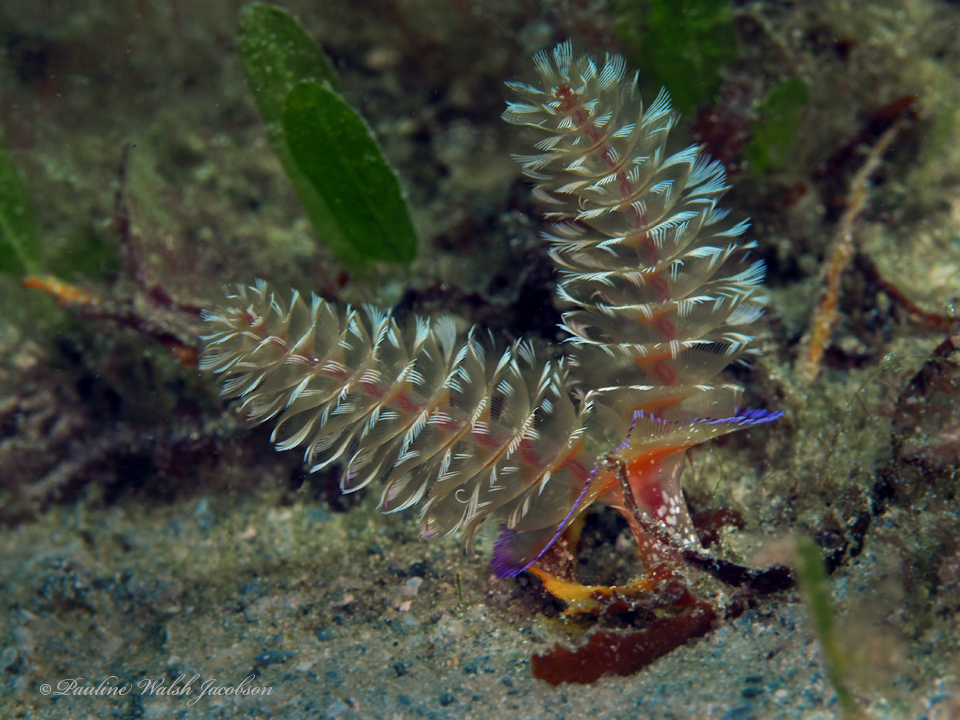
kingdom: Animalia
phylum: Phoronida
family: Phoronidae
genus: Phoronopsis
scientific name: Phoronopsis californica
